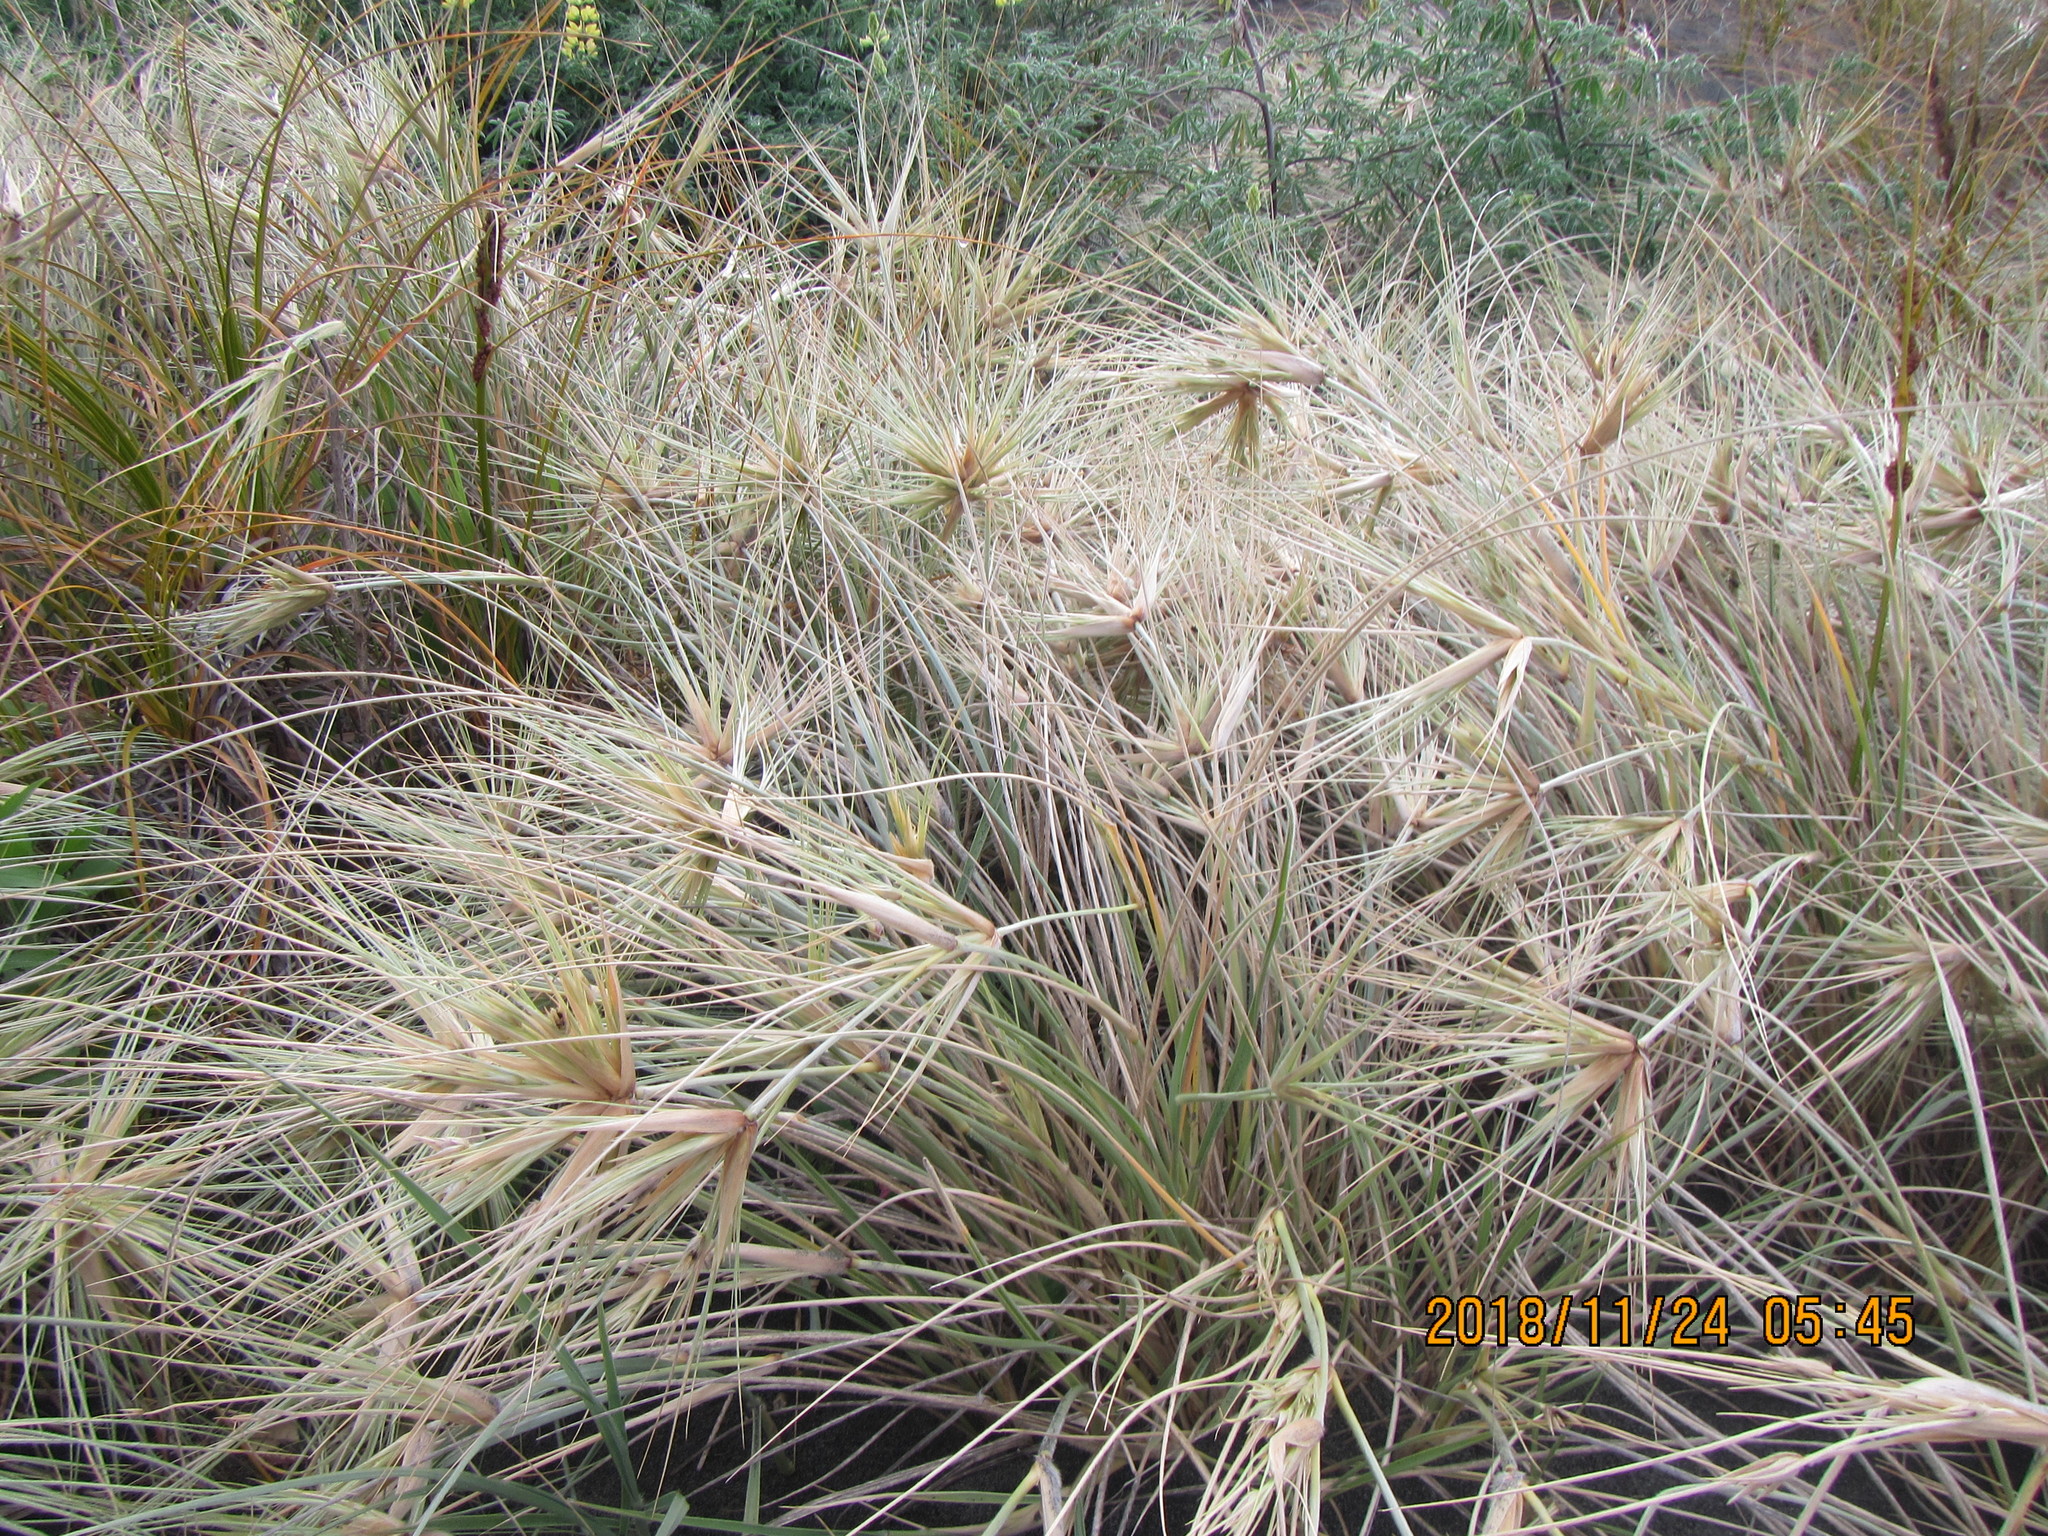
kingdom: Plantae
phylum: Tracheophyta
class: Liliopsida
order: Poales
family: Poaceae
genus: Spinifex
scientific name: Spinifex sericeus
